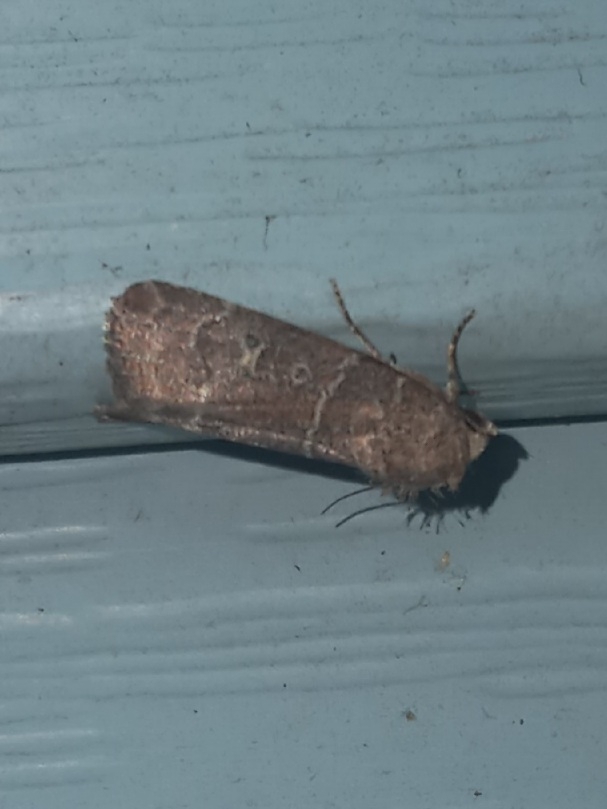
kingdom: Animalia
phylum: Arthropoda
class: Insecta
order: Lepidoptera
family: Noctuidae
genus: Elaphria
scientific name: Elaphria grata
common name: Grateful midget moth
